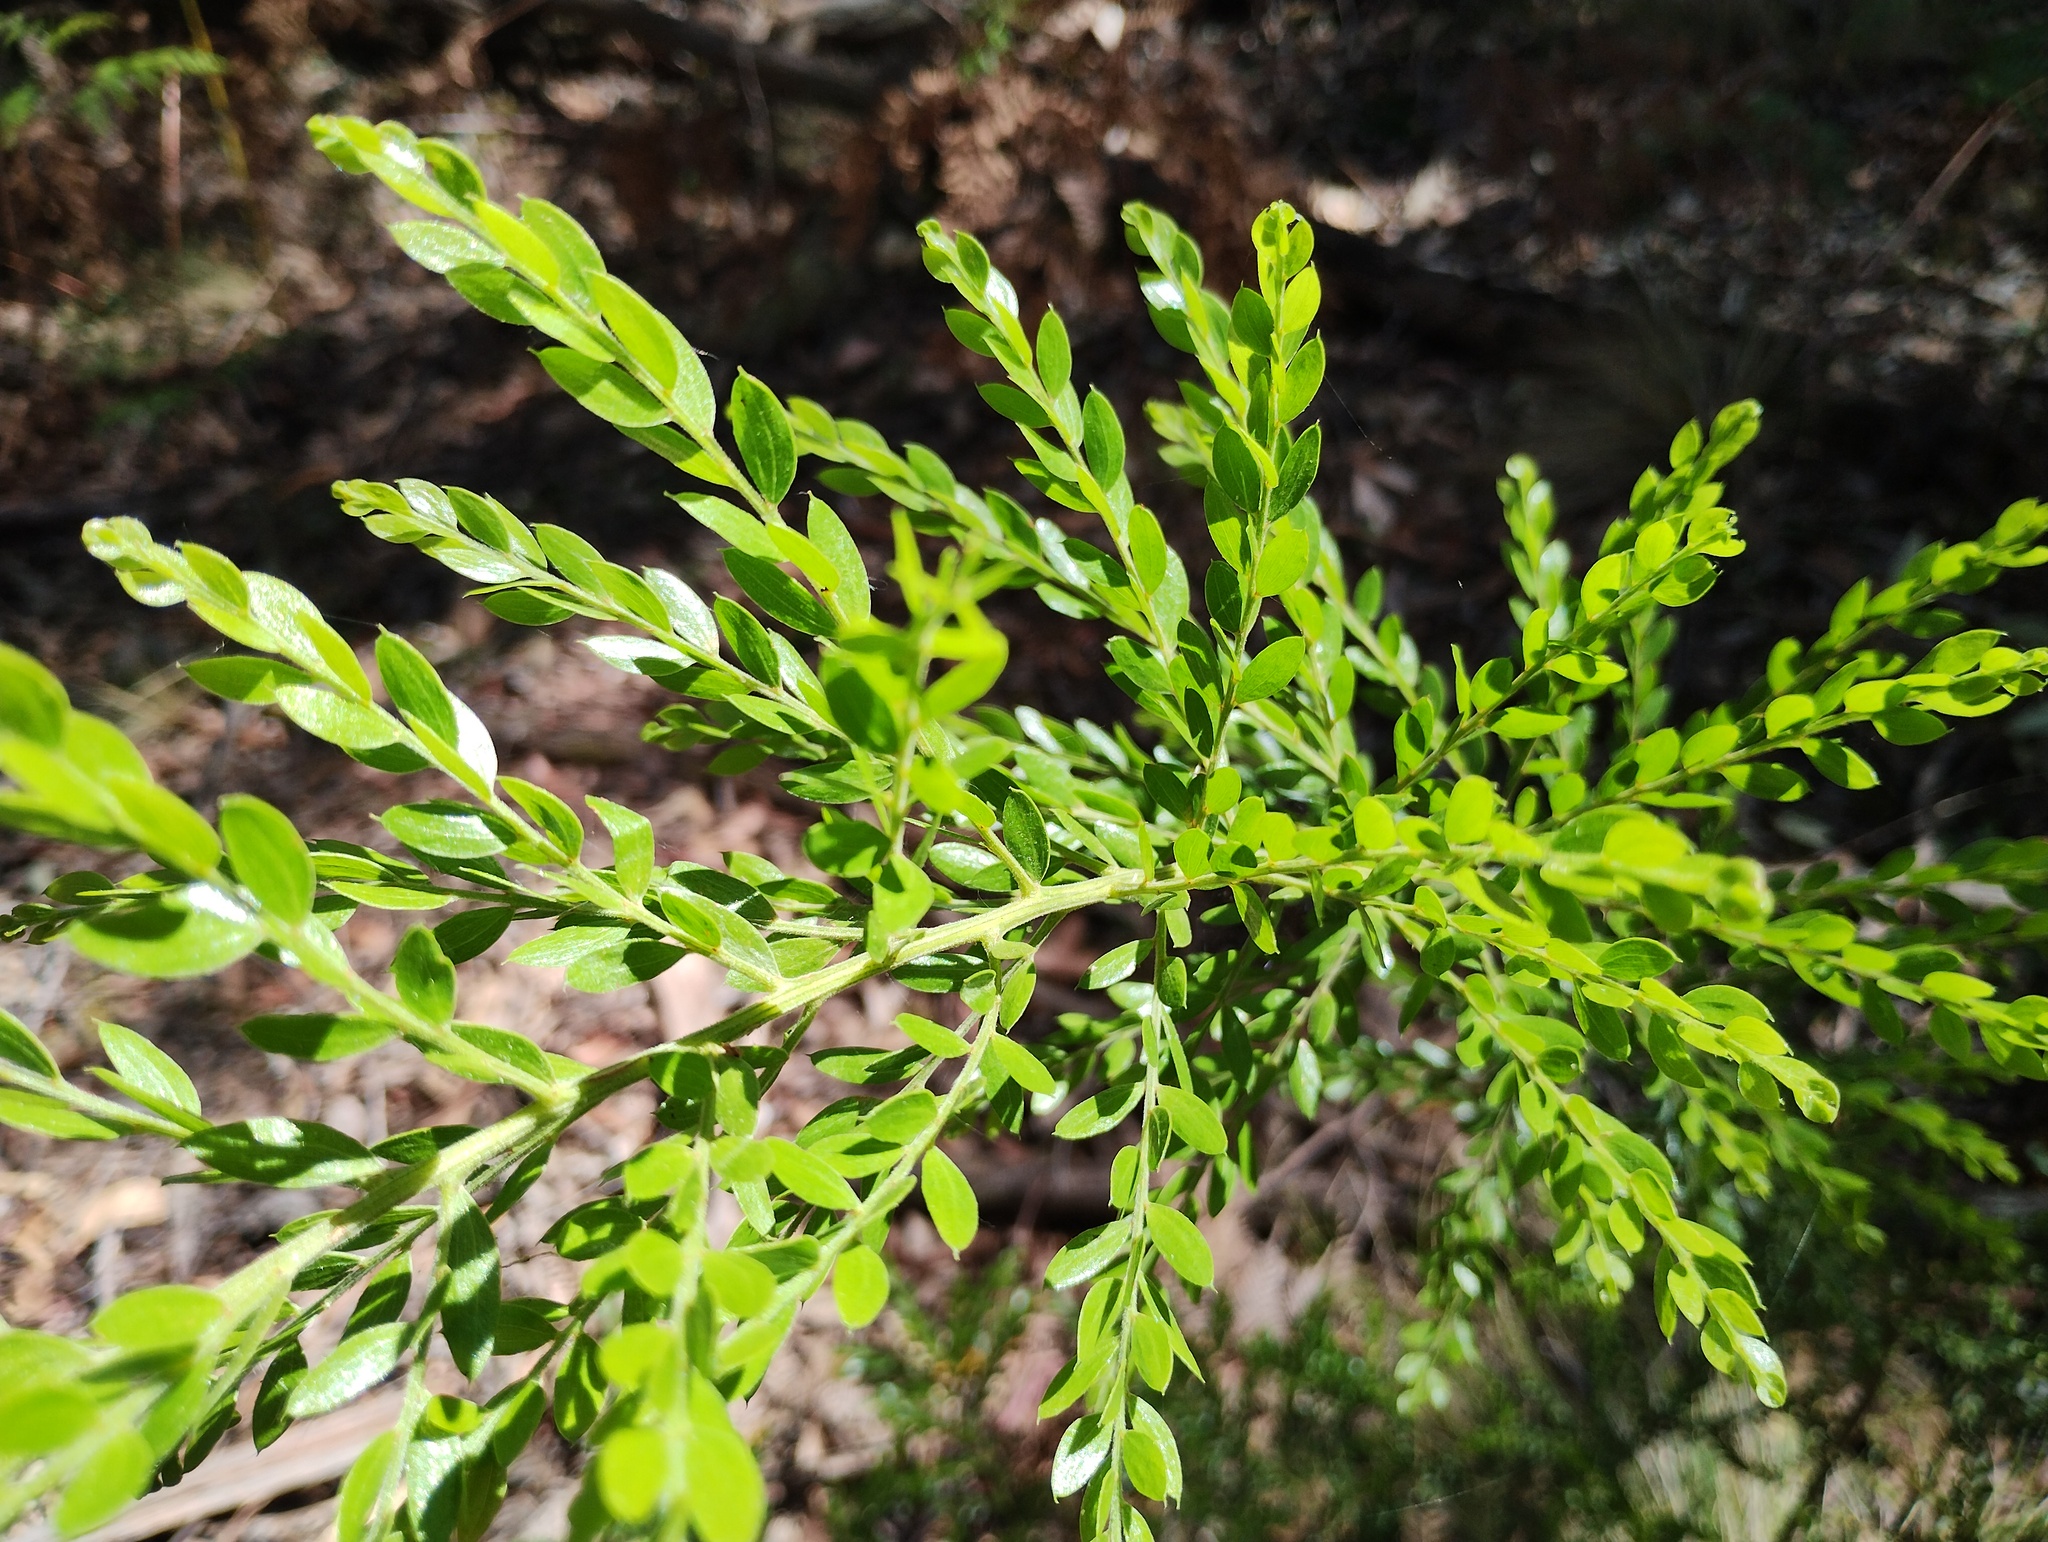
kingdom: Plantae
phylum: Tracheophyta
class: Magnoliopsida
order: Fabales
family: Fabaceae
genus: Acacia
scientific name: Acacia howittii
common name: Sticky wattle
